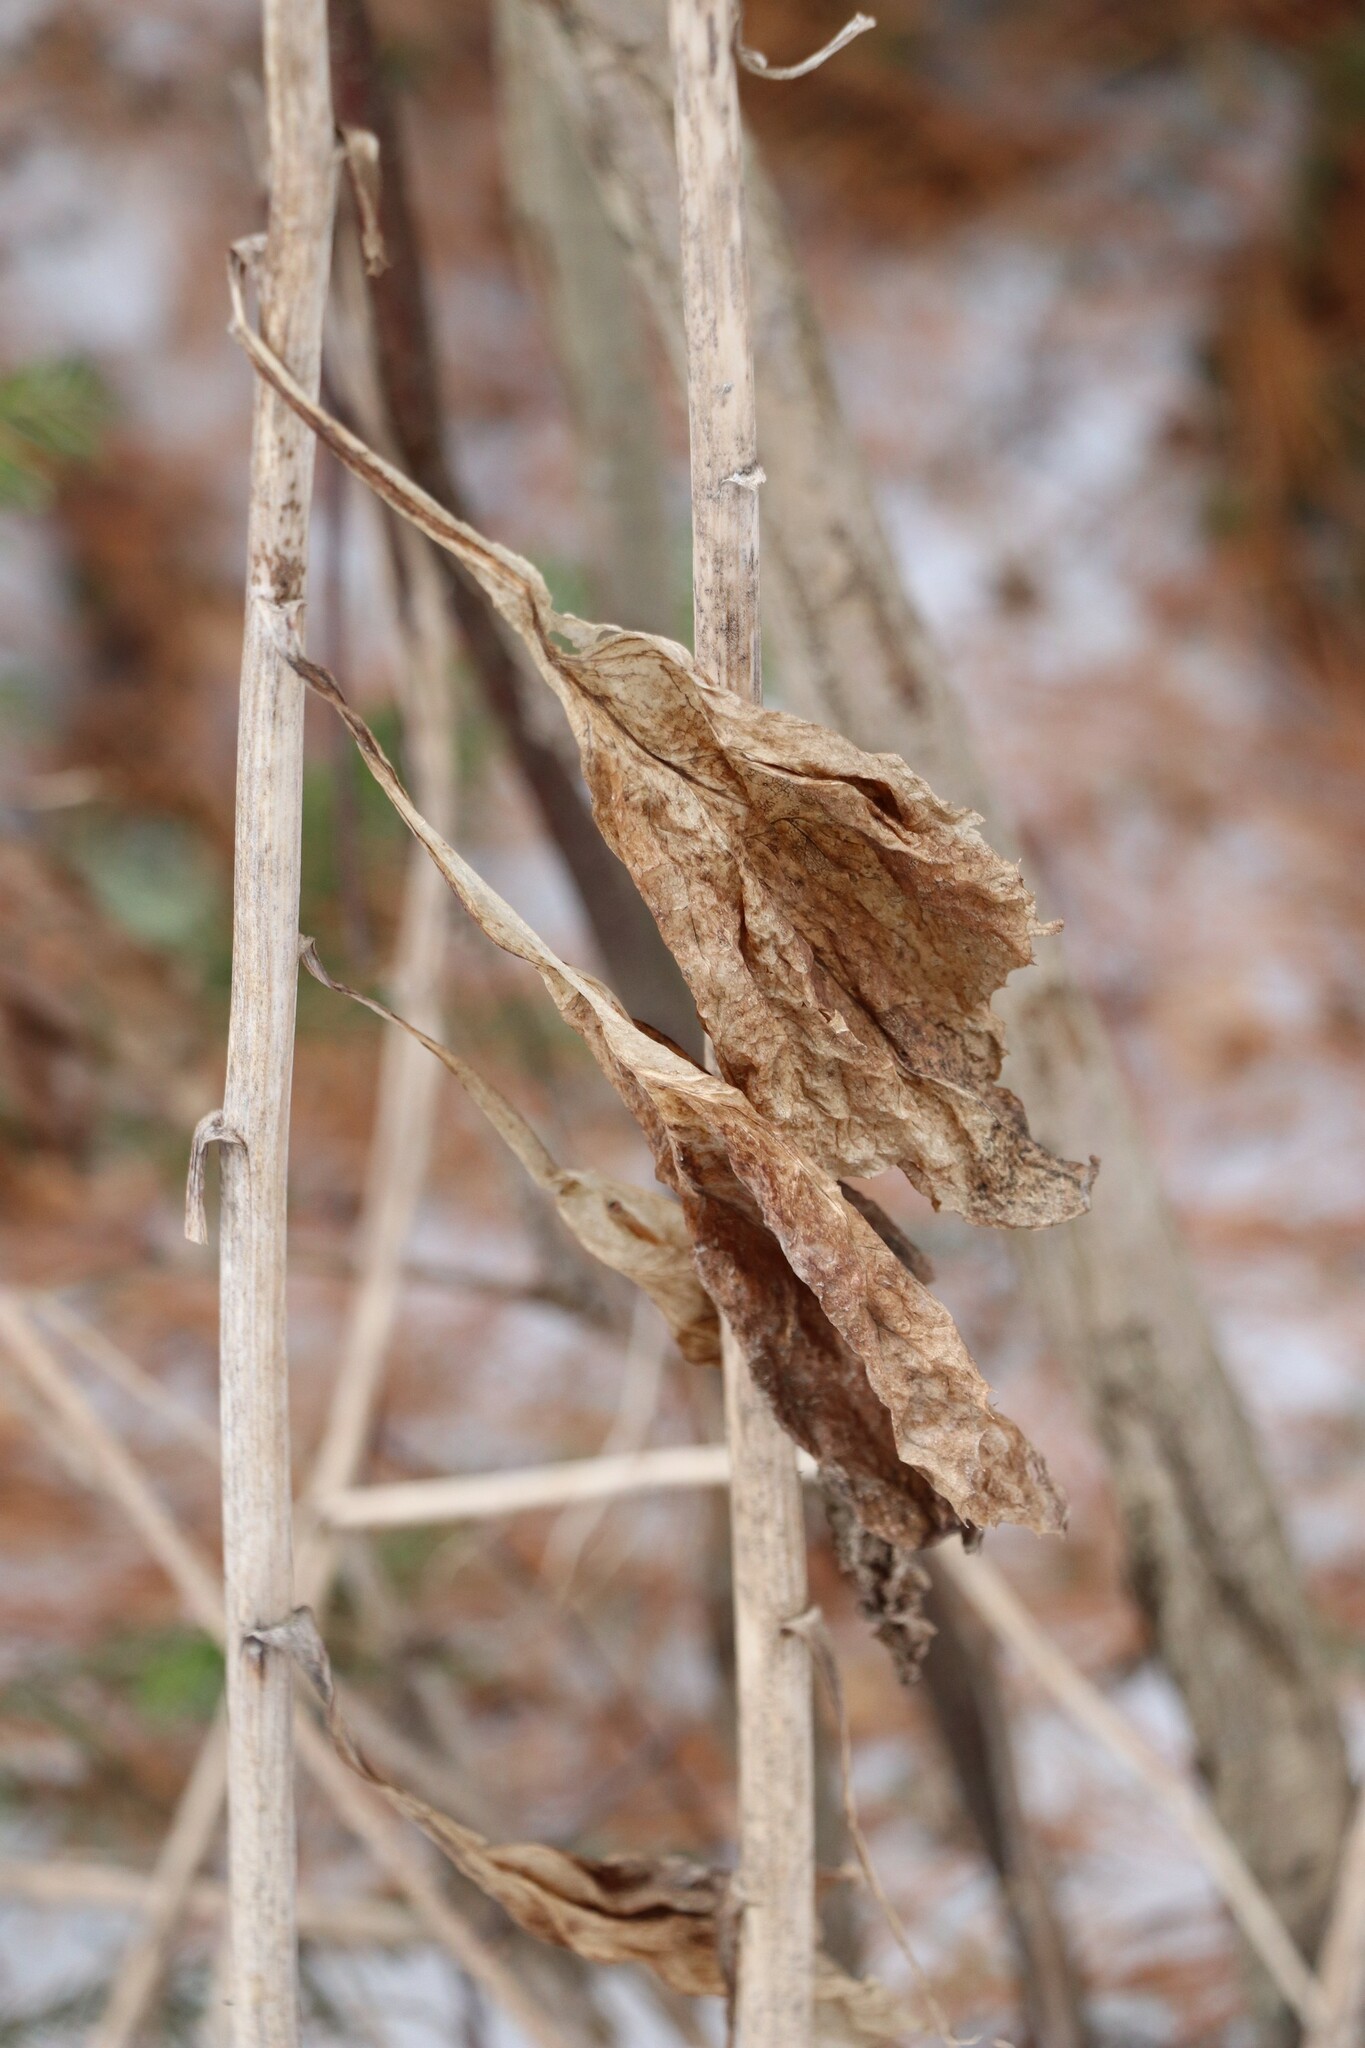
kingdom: Plantae
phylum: Tracheophyta
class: Magnoliopsida
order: Asterales
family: Asteraceae
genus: Parasenecio
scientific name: Parasenecio hastatus
